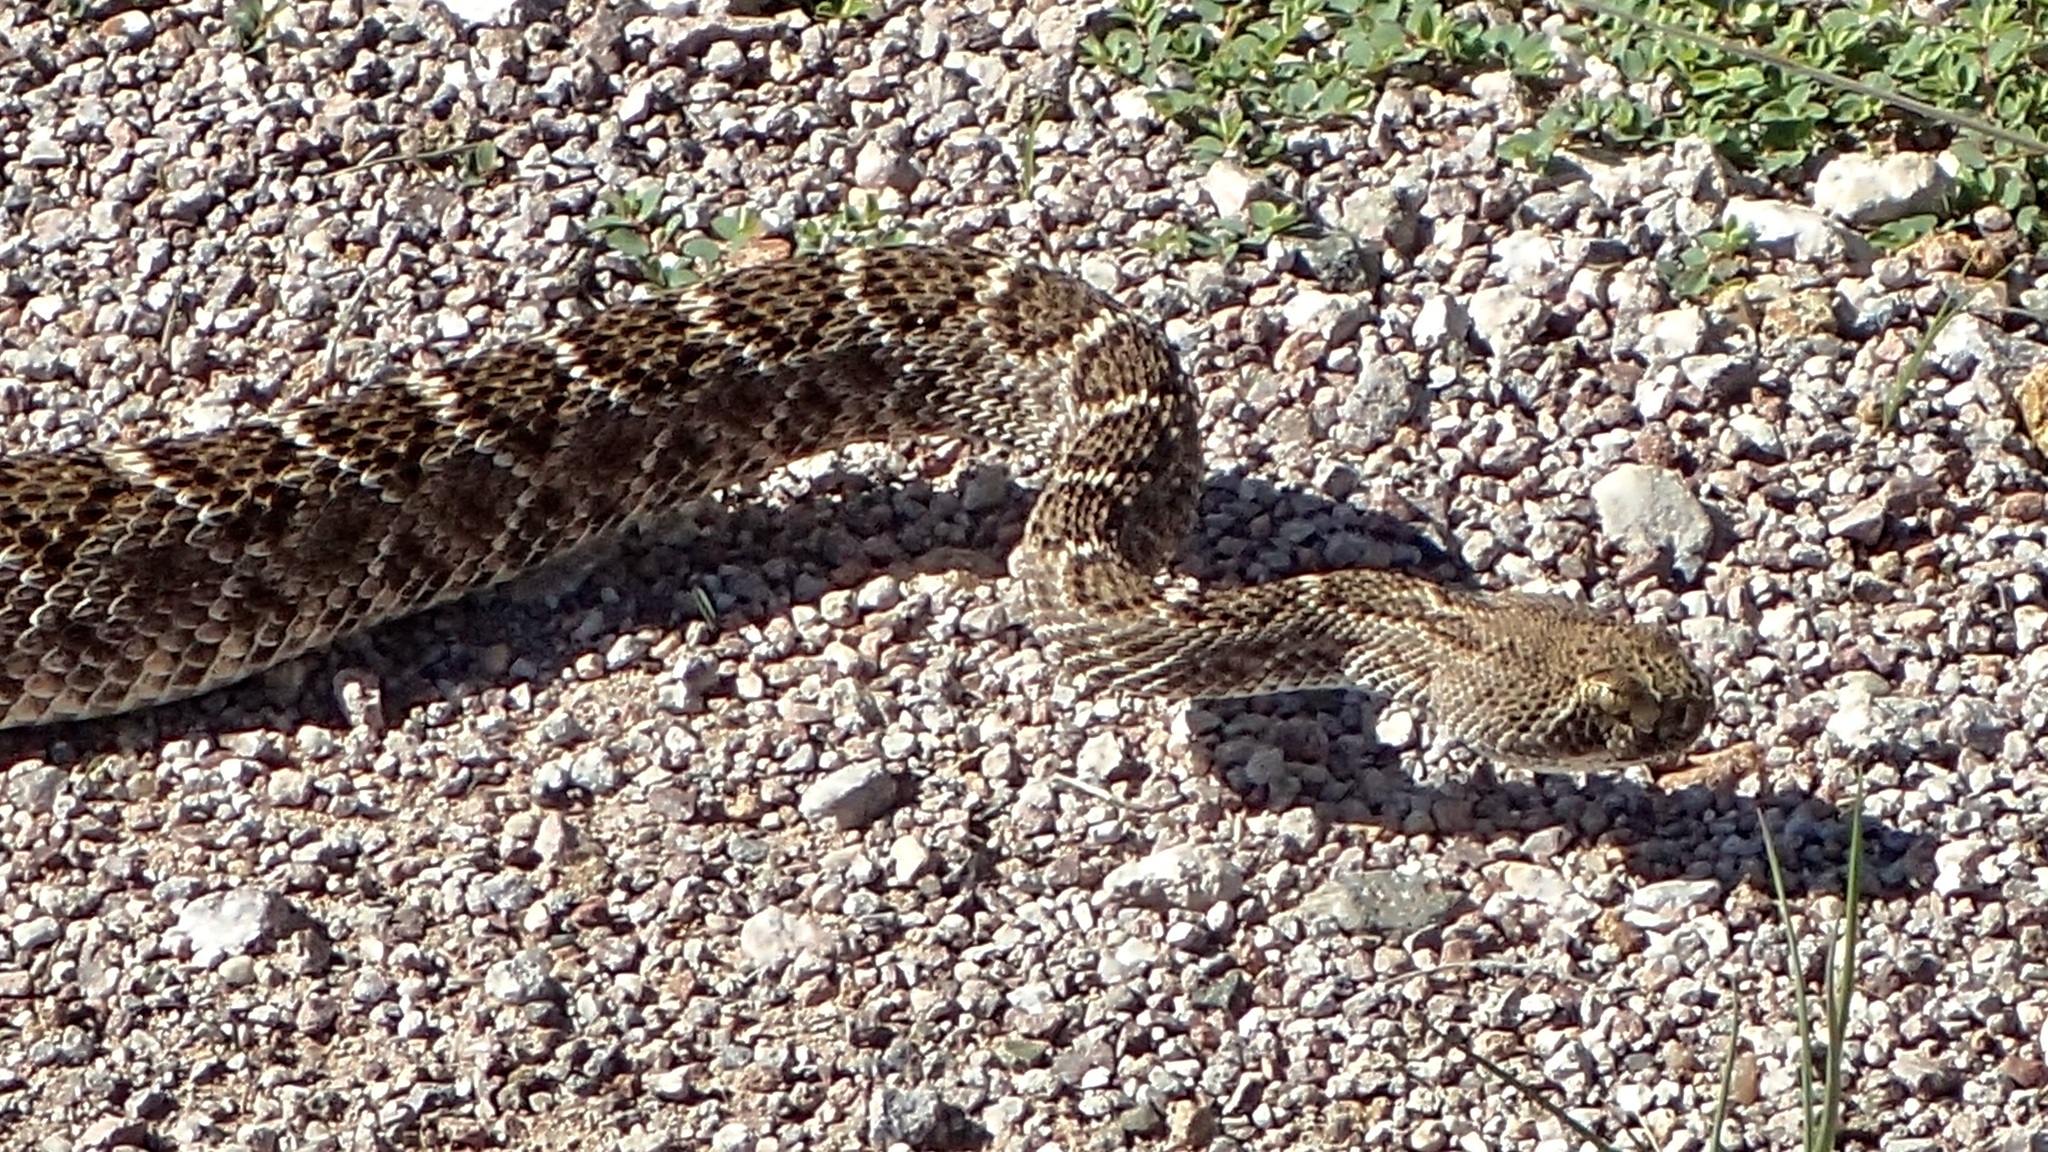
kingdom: Animalia
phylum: Chordata
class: Squamata
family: Viperidae
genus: Crotalus
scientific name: Crotalus atrox
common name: Western diamond-backed rattlesnake
